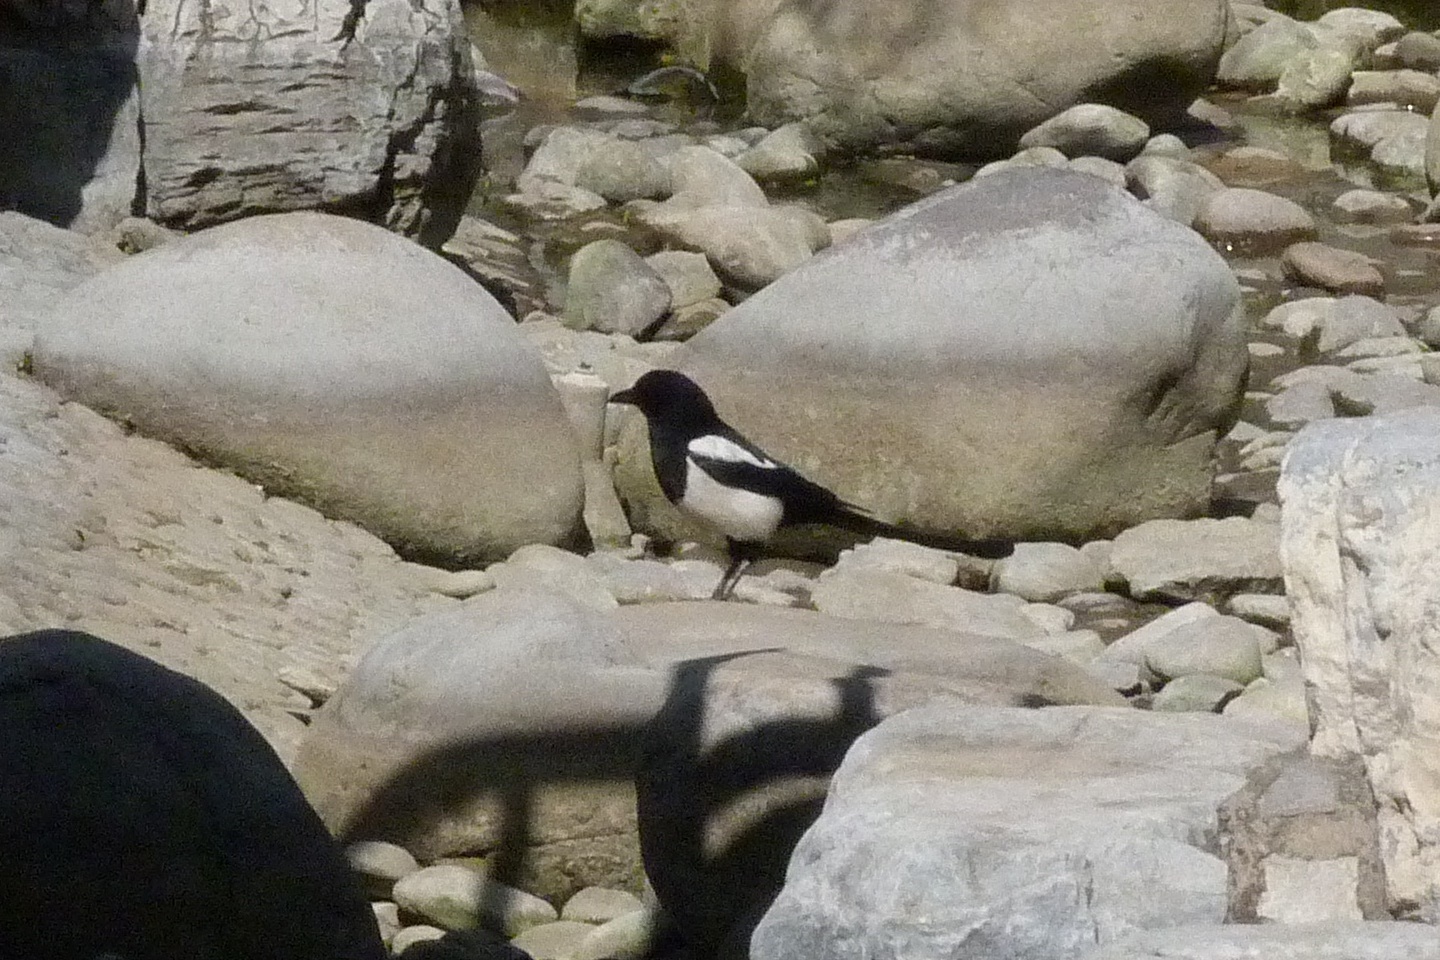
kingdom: Animalia
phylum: Chordata
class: Aves
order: Passeriformes
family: Corvidae
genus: Pica
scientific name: Pica serica
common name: Oriental magpie
